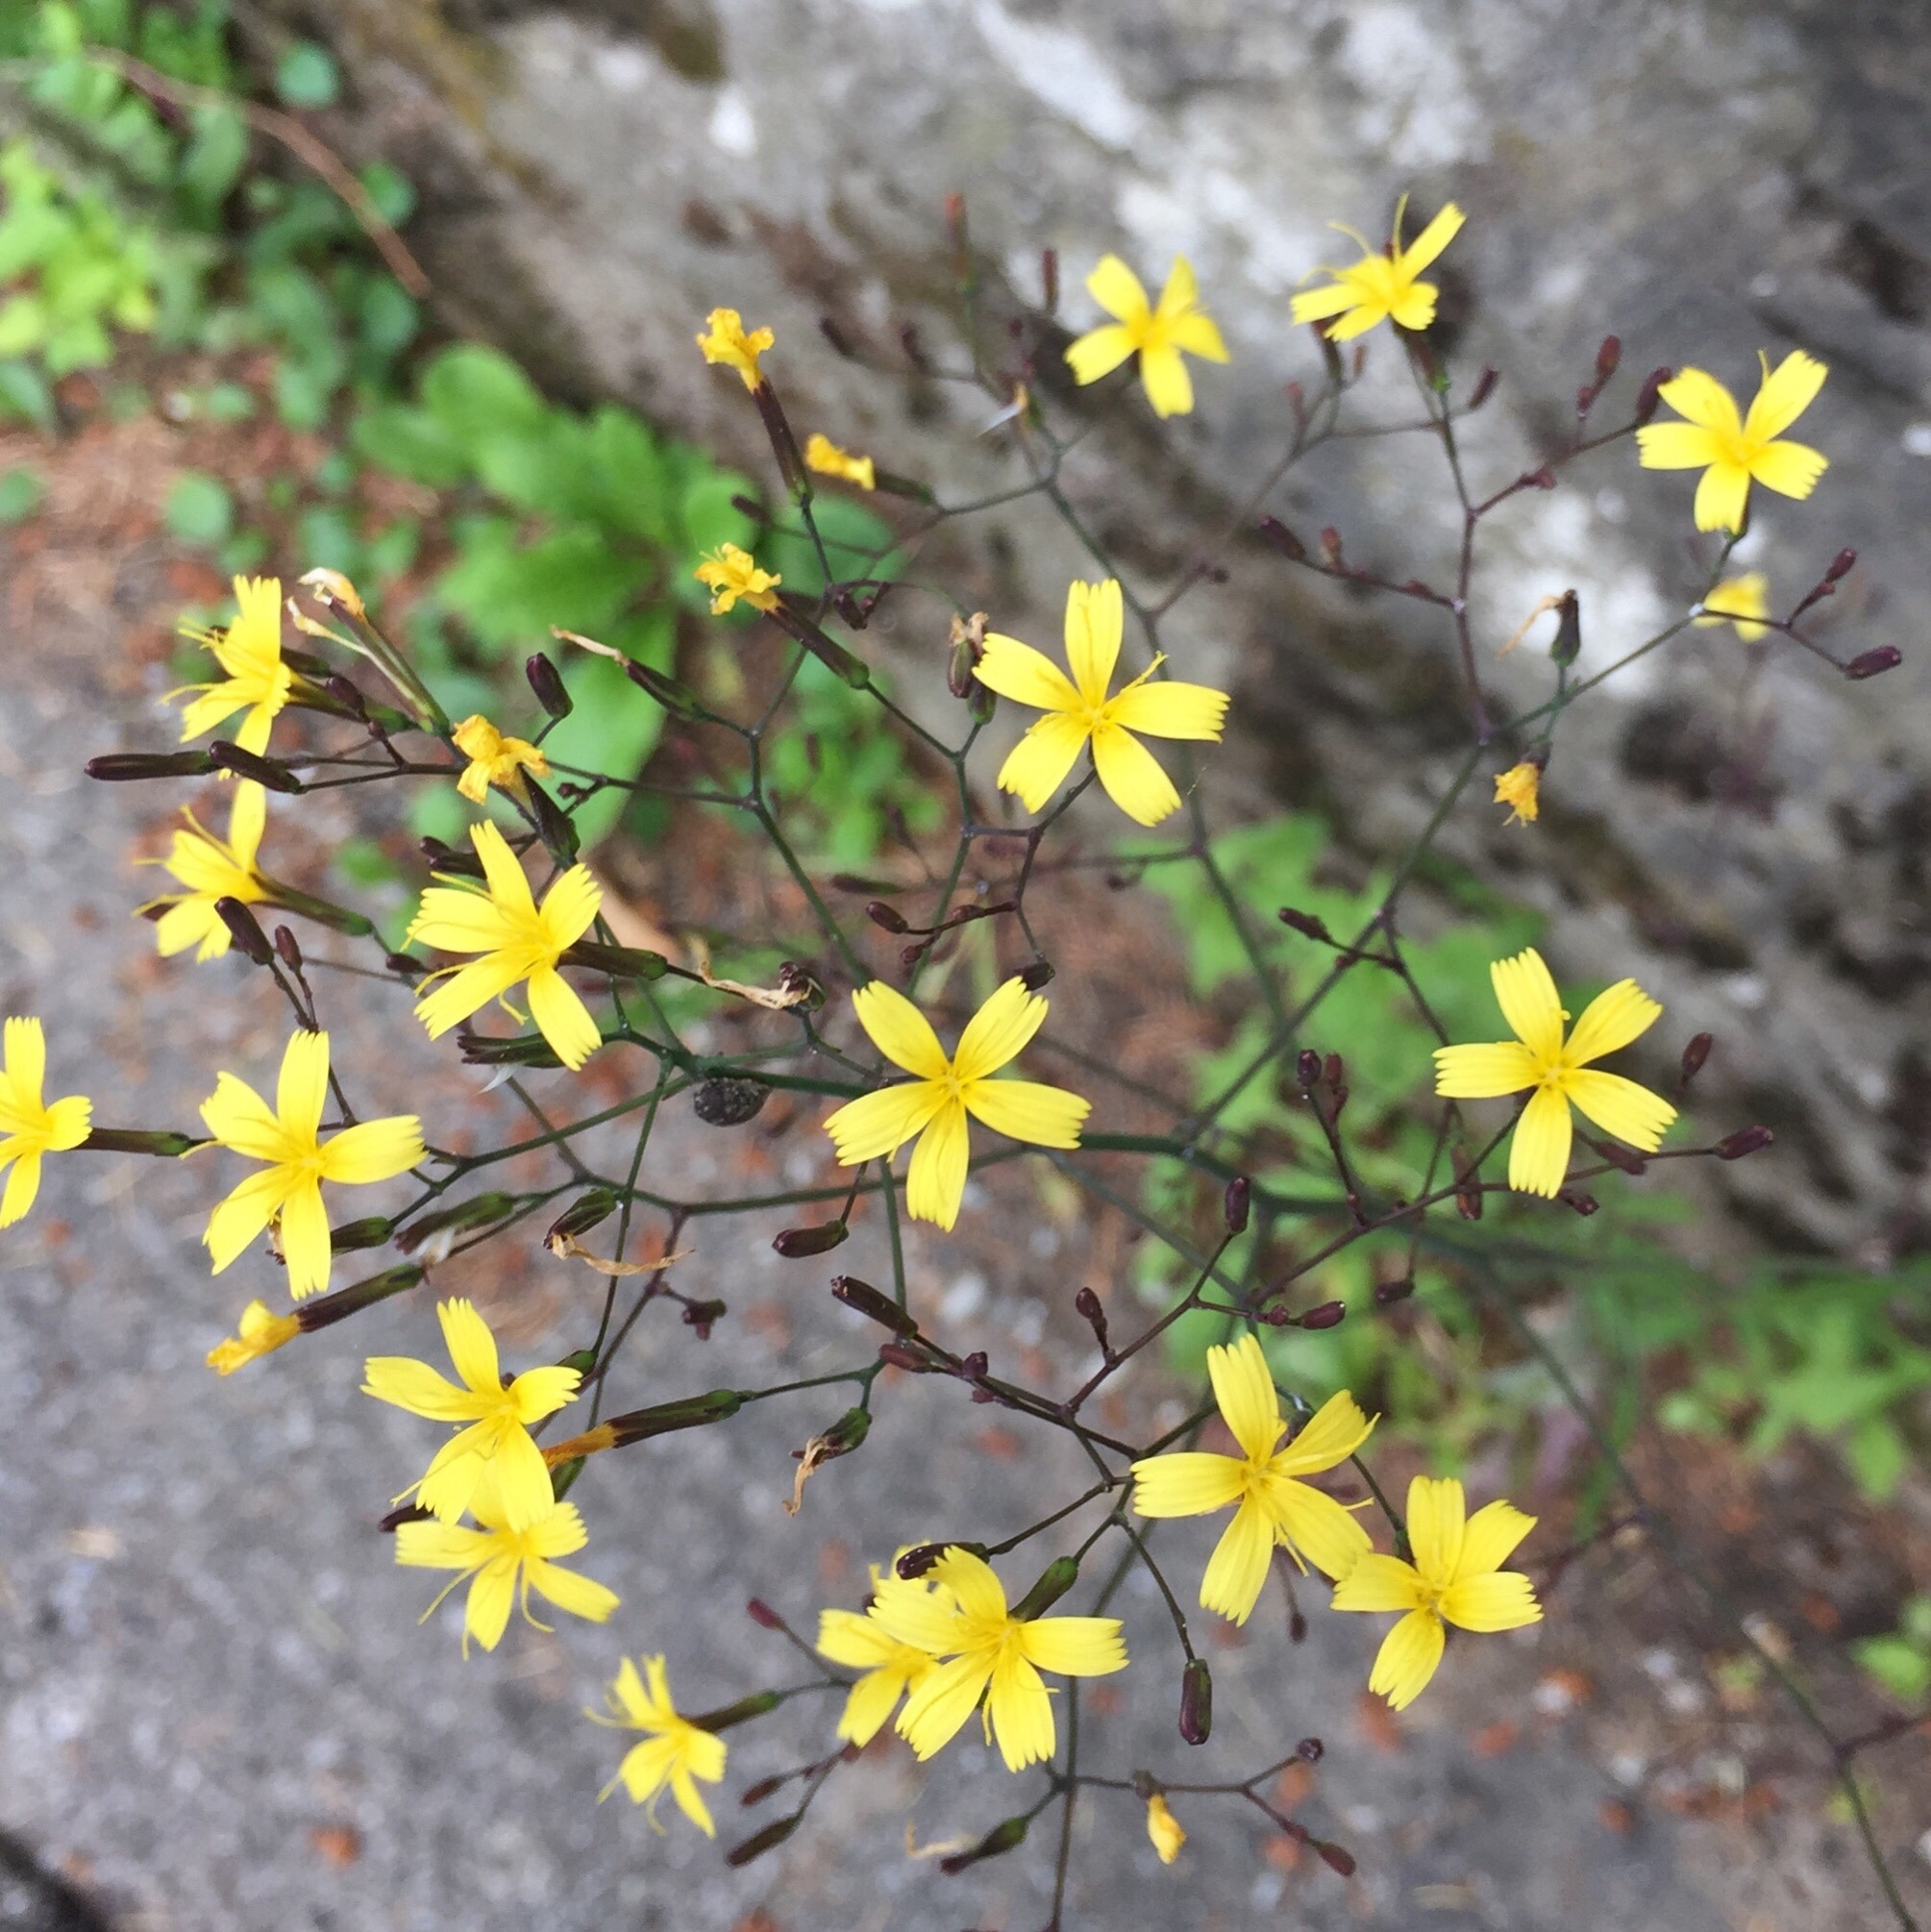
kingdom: Plantae
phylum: Tracheophyta
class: Magnoliopsida
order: Asterales
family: Asteraceae
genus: Mycelis
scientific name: Mycelis muralis
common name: Wall lettuce
